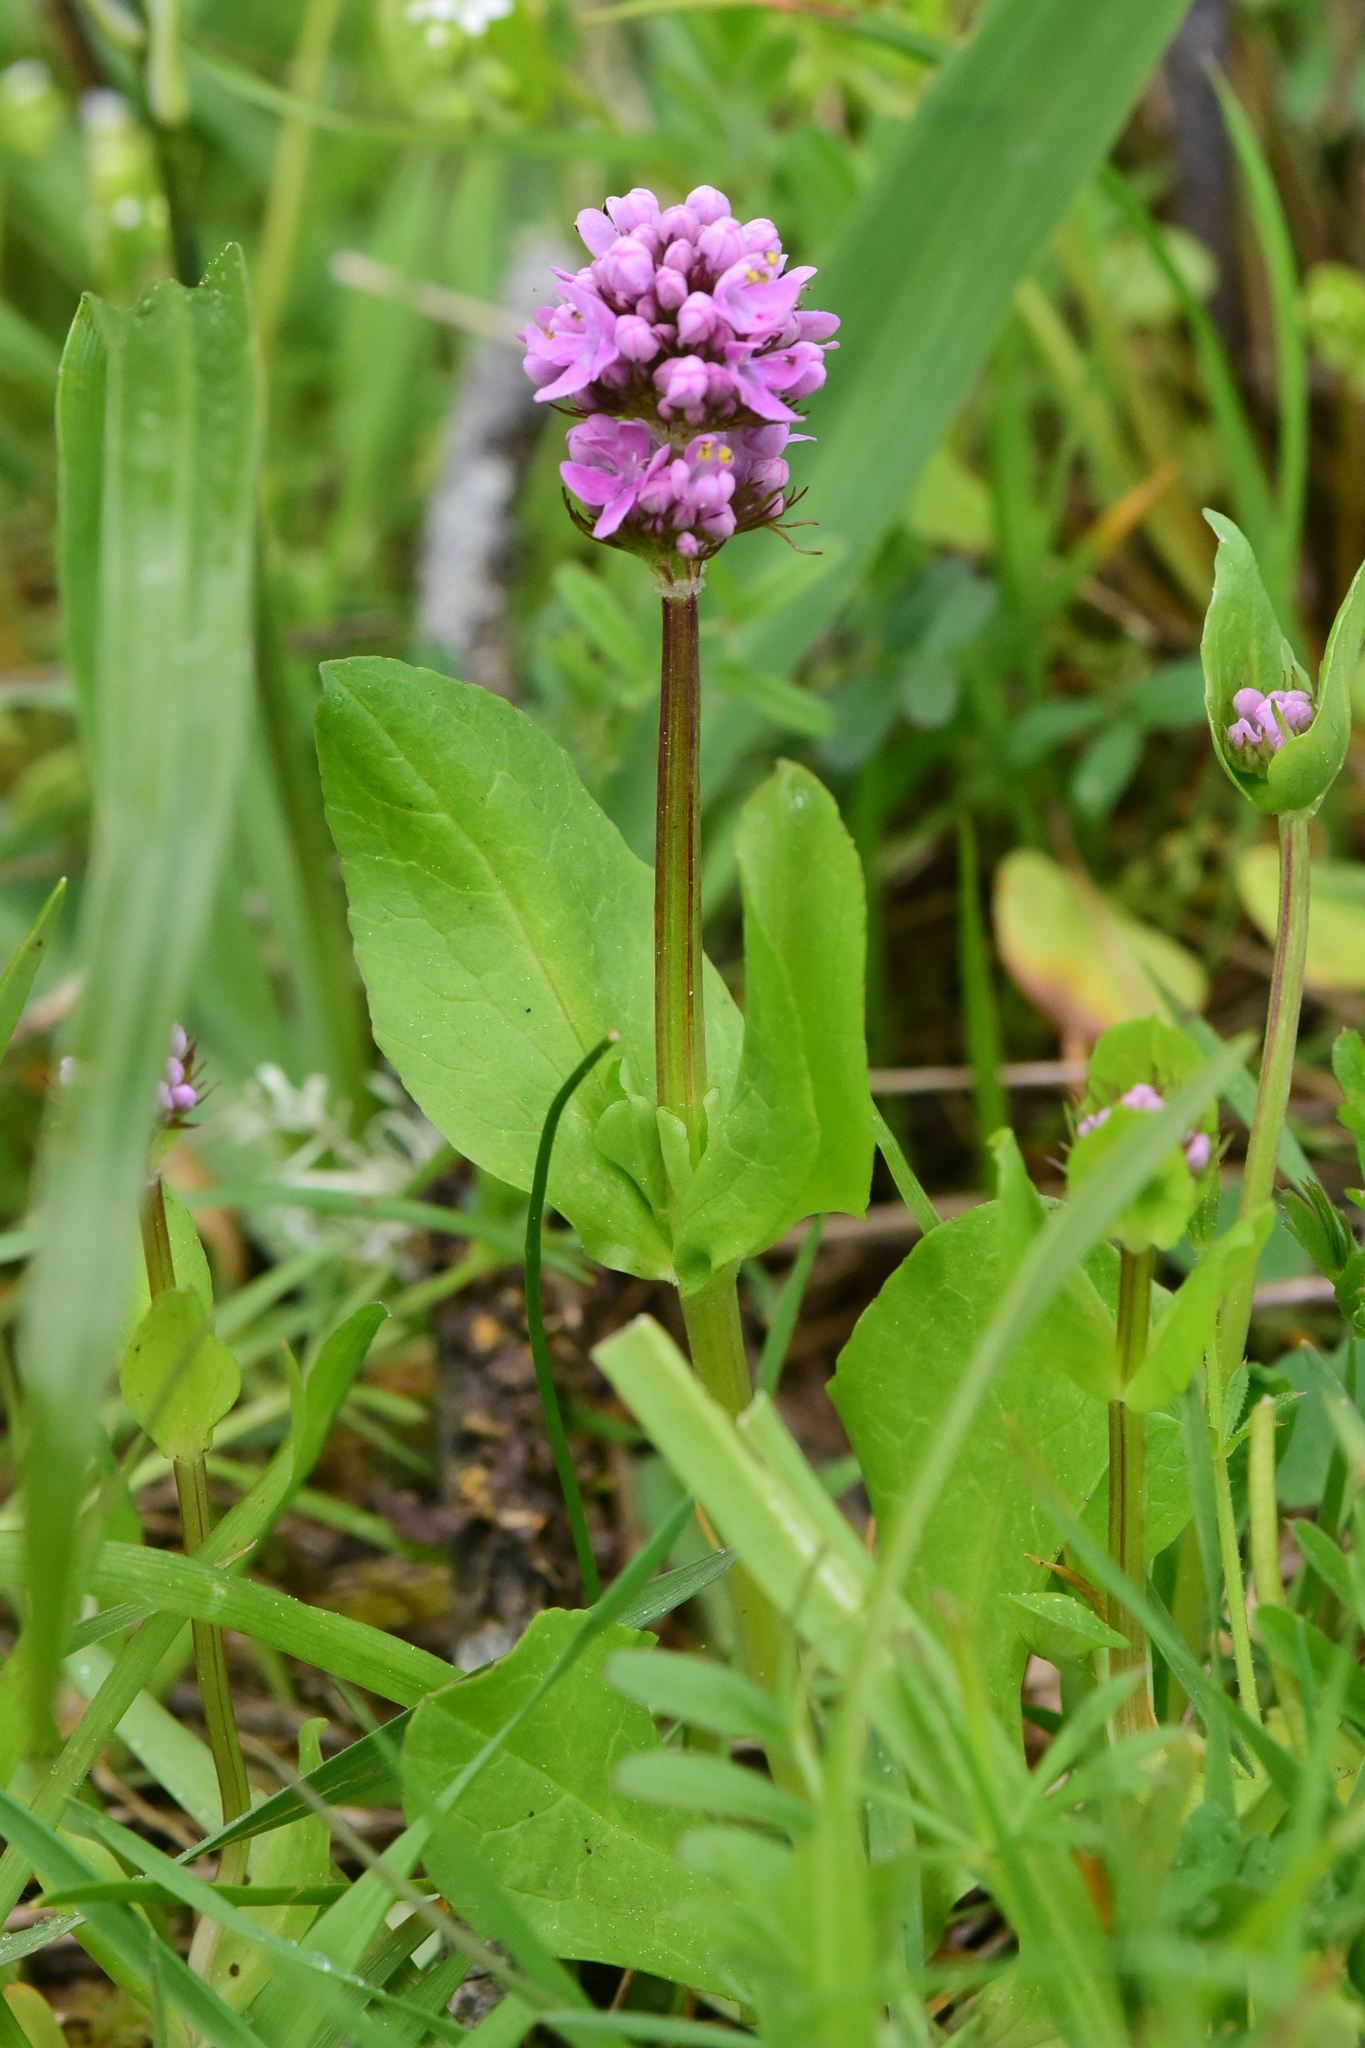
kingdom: Plantae
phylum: Tracheophyta
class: Magnoliopsida
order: Dipsacales
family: Caprifoliaceae
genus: Plectritis
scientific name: Plectritis congesta
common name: Pink plectritis
